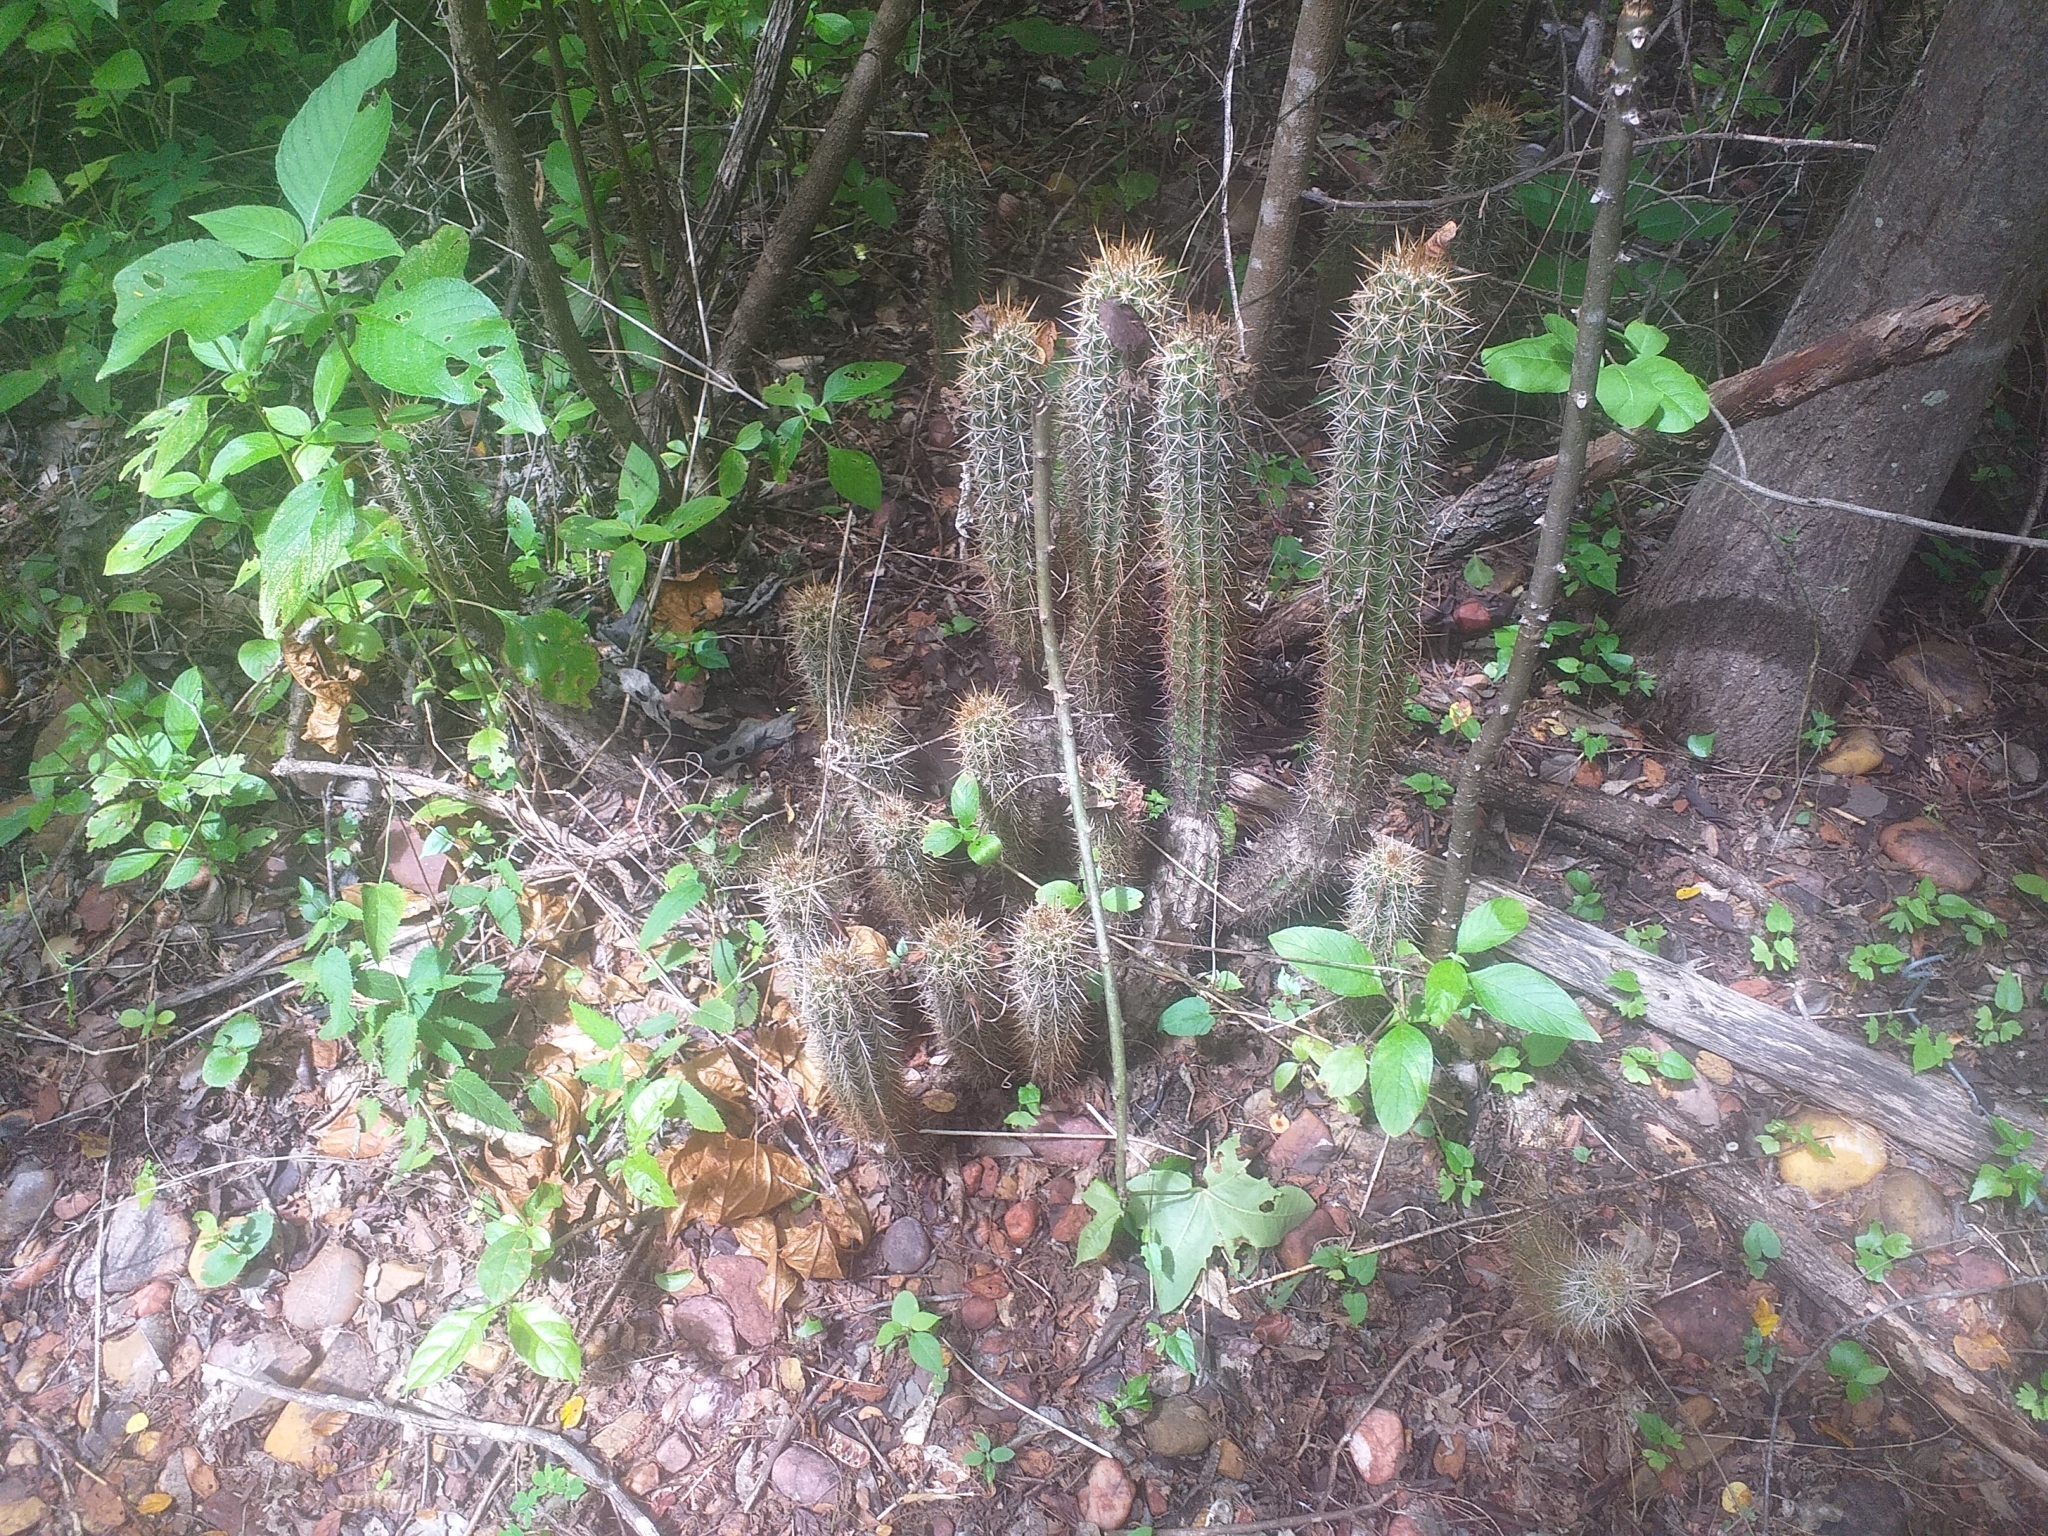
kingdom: Plantae
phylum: Tracheophyta
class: Magnoliopsida
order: Caryophyllales
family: Cactaceae
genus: Xiquexique
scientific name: Xiquexique gounellei
